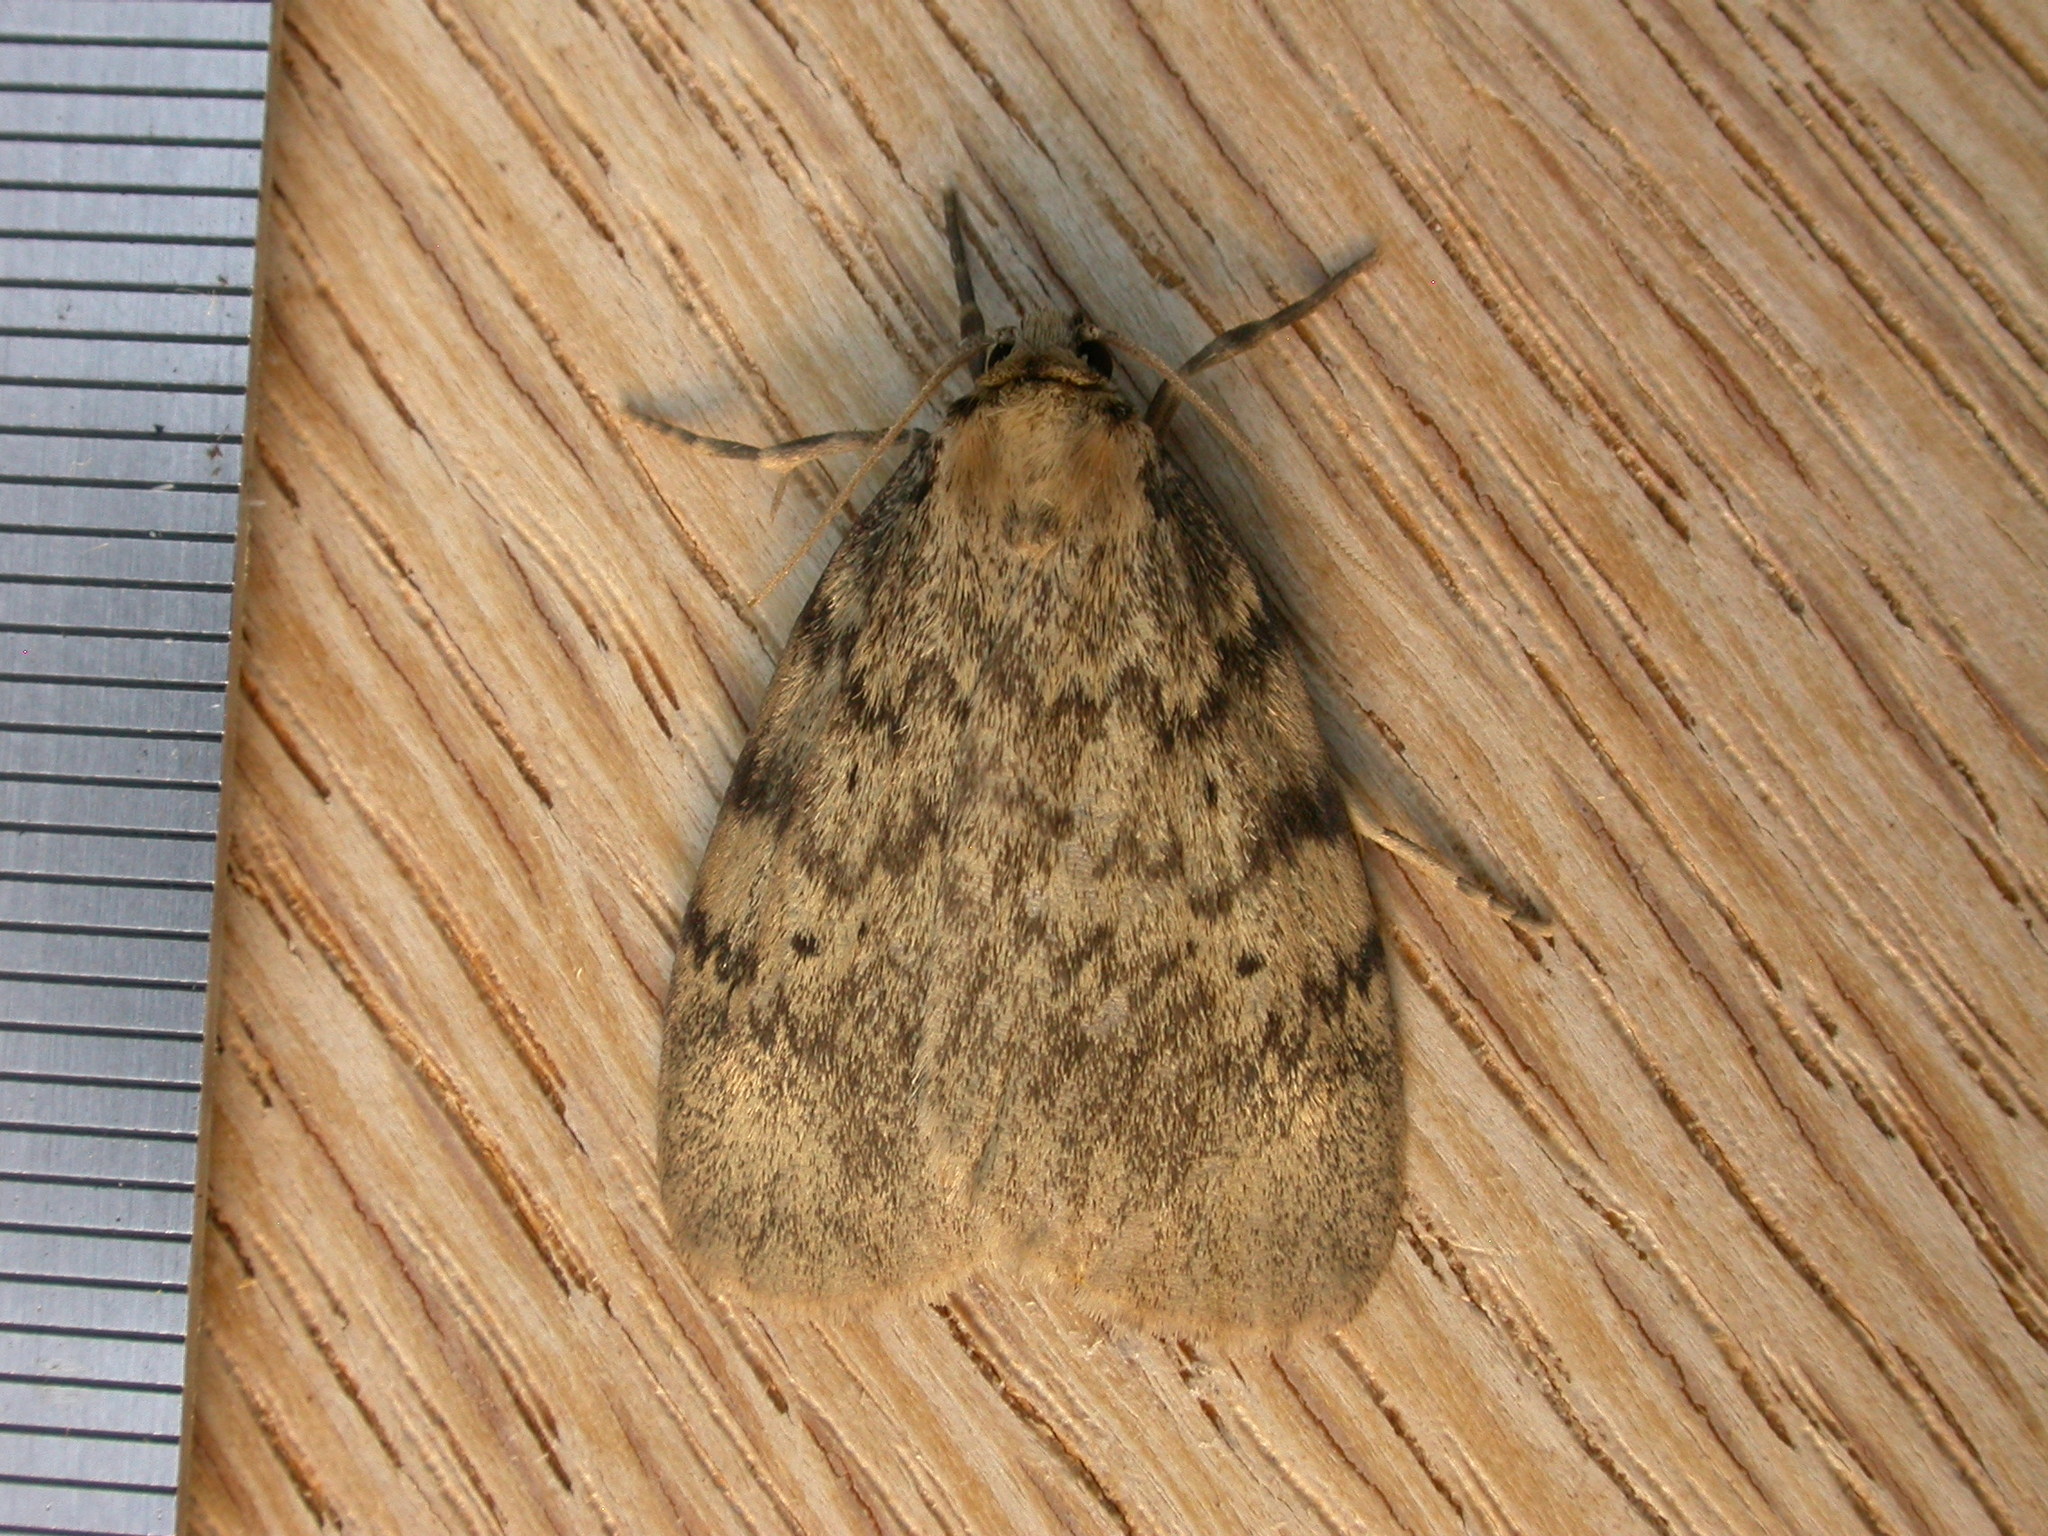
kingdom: Animalia
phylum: Arthropoda
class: Insecta
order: Lepidoptera
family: Erebidae
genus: Hectobrocha
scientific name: Hectobrocha adoxa
